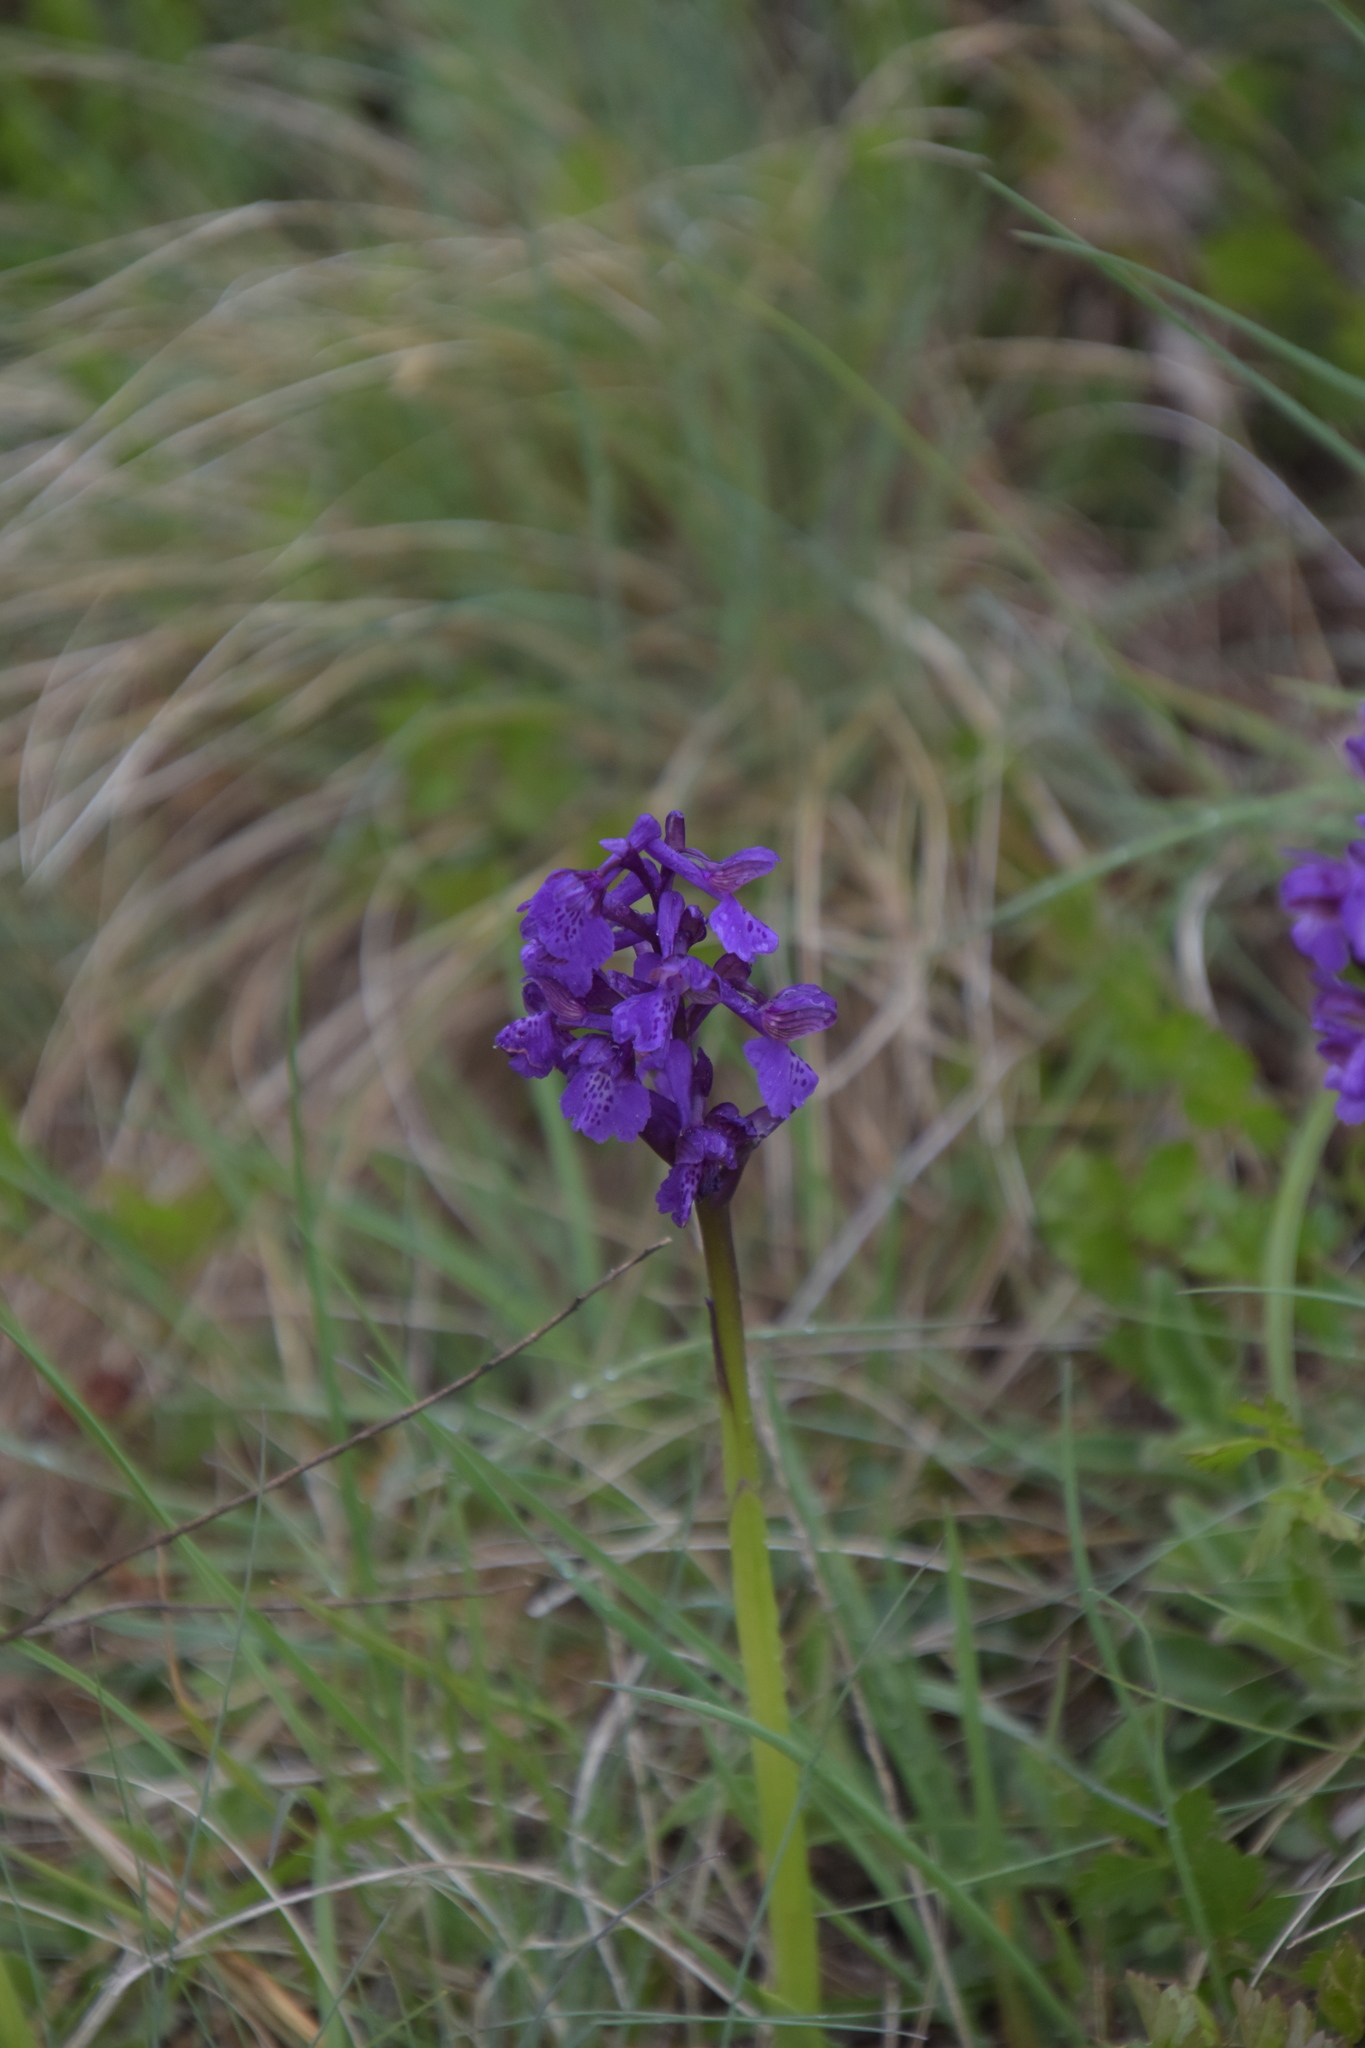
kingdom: Plantae
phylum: Tracheophyta
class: Liliopsida
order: Asparagales
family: Orchidaceae
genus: Anacamptis
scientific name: Anacamptis morio
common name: Green-winged orchid
